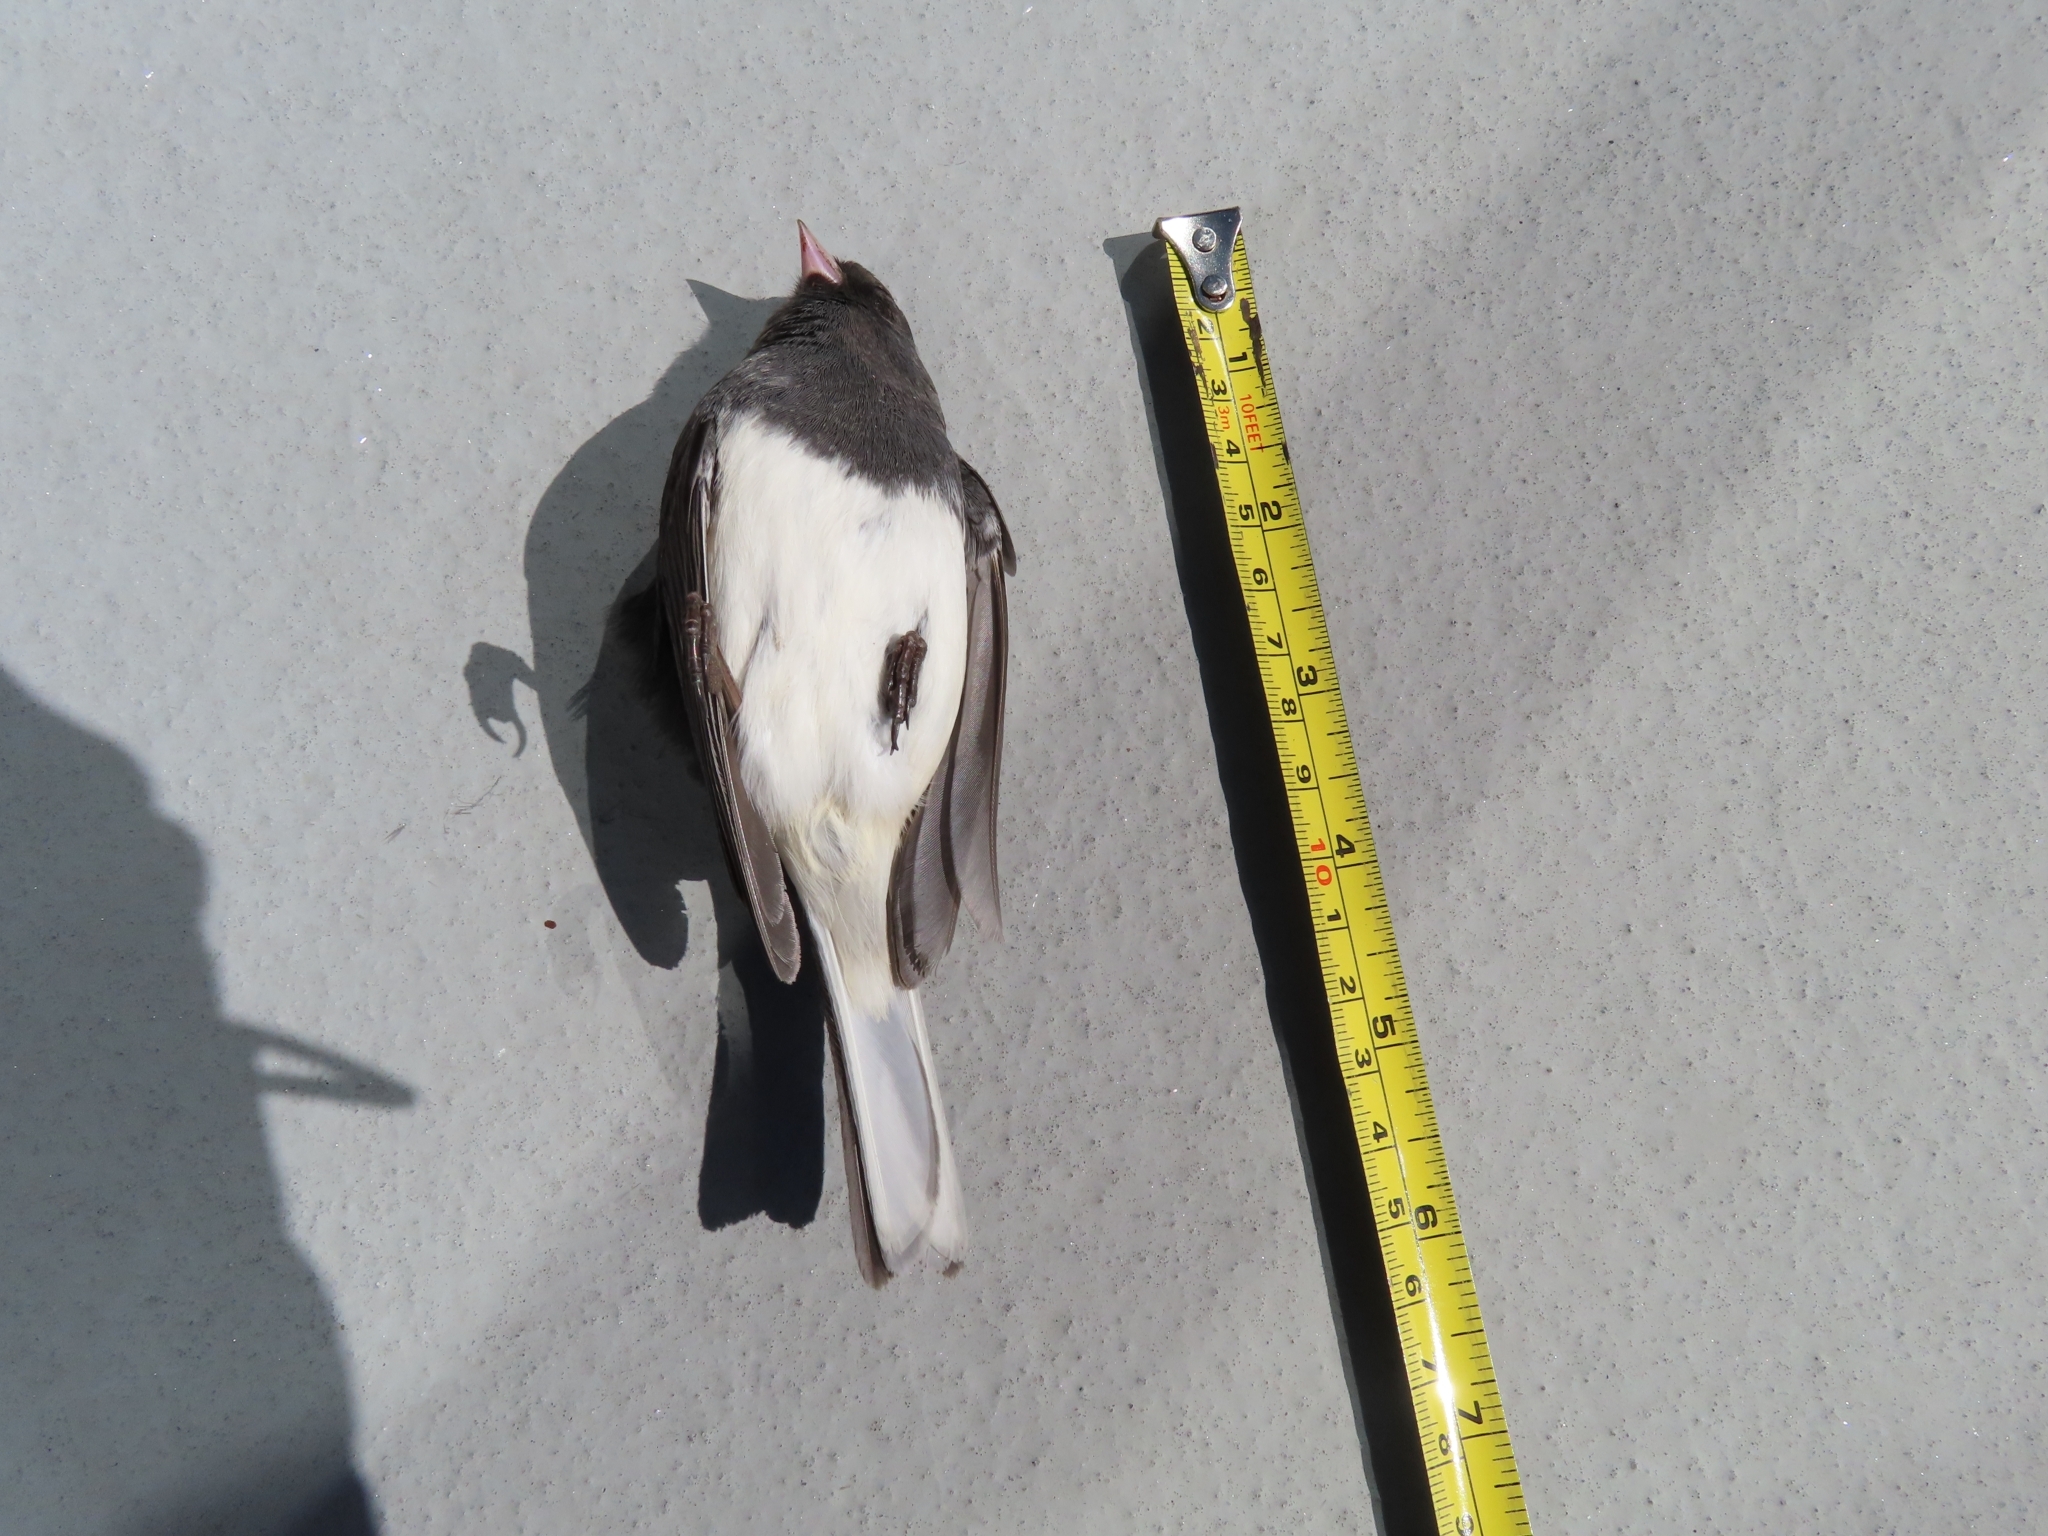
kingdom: Animalia
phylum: Chordata
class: Aves
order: Passeriformes
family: Passerellidae
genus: Junco
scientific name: Junco hyemalis
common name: Dark-eyed junco
